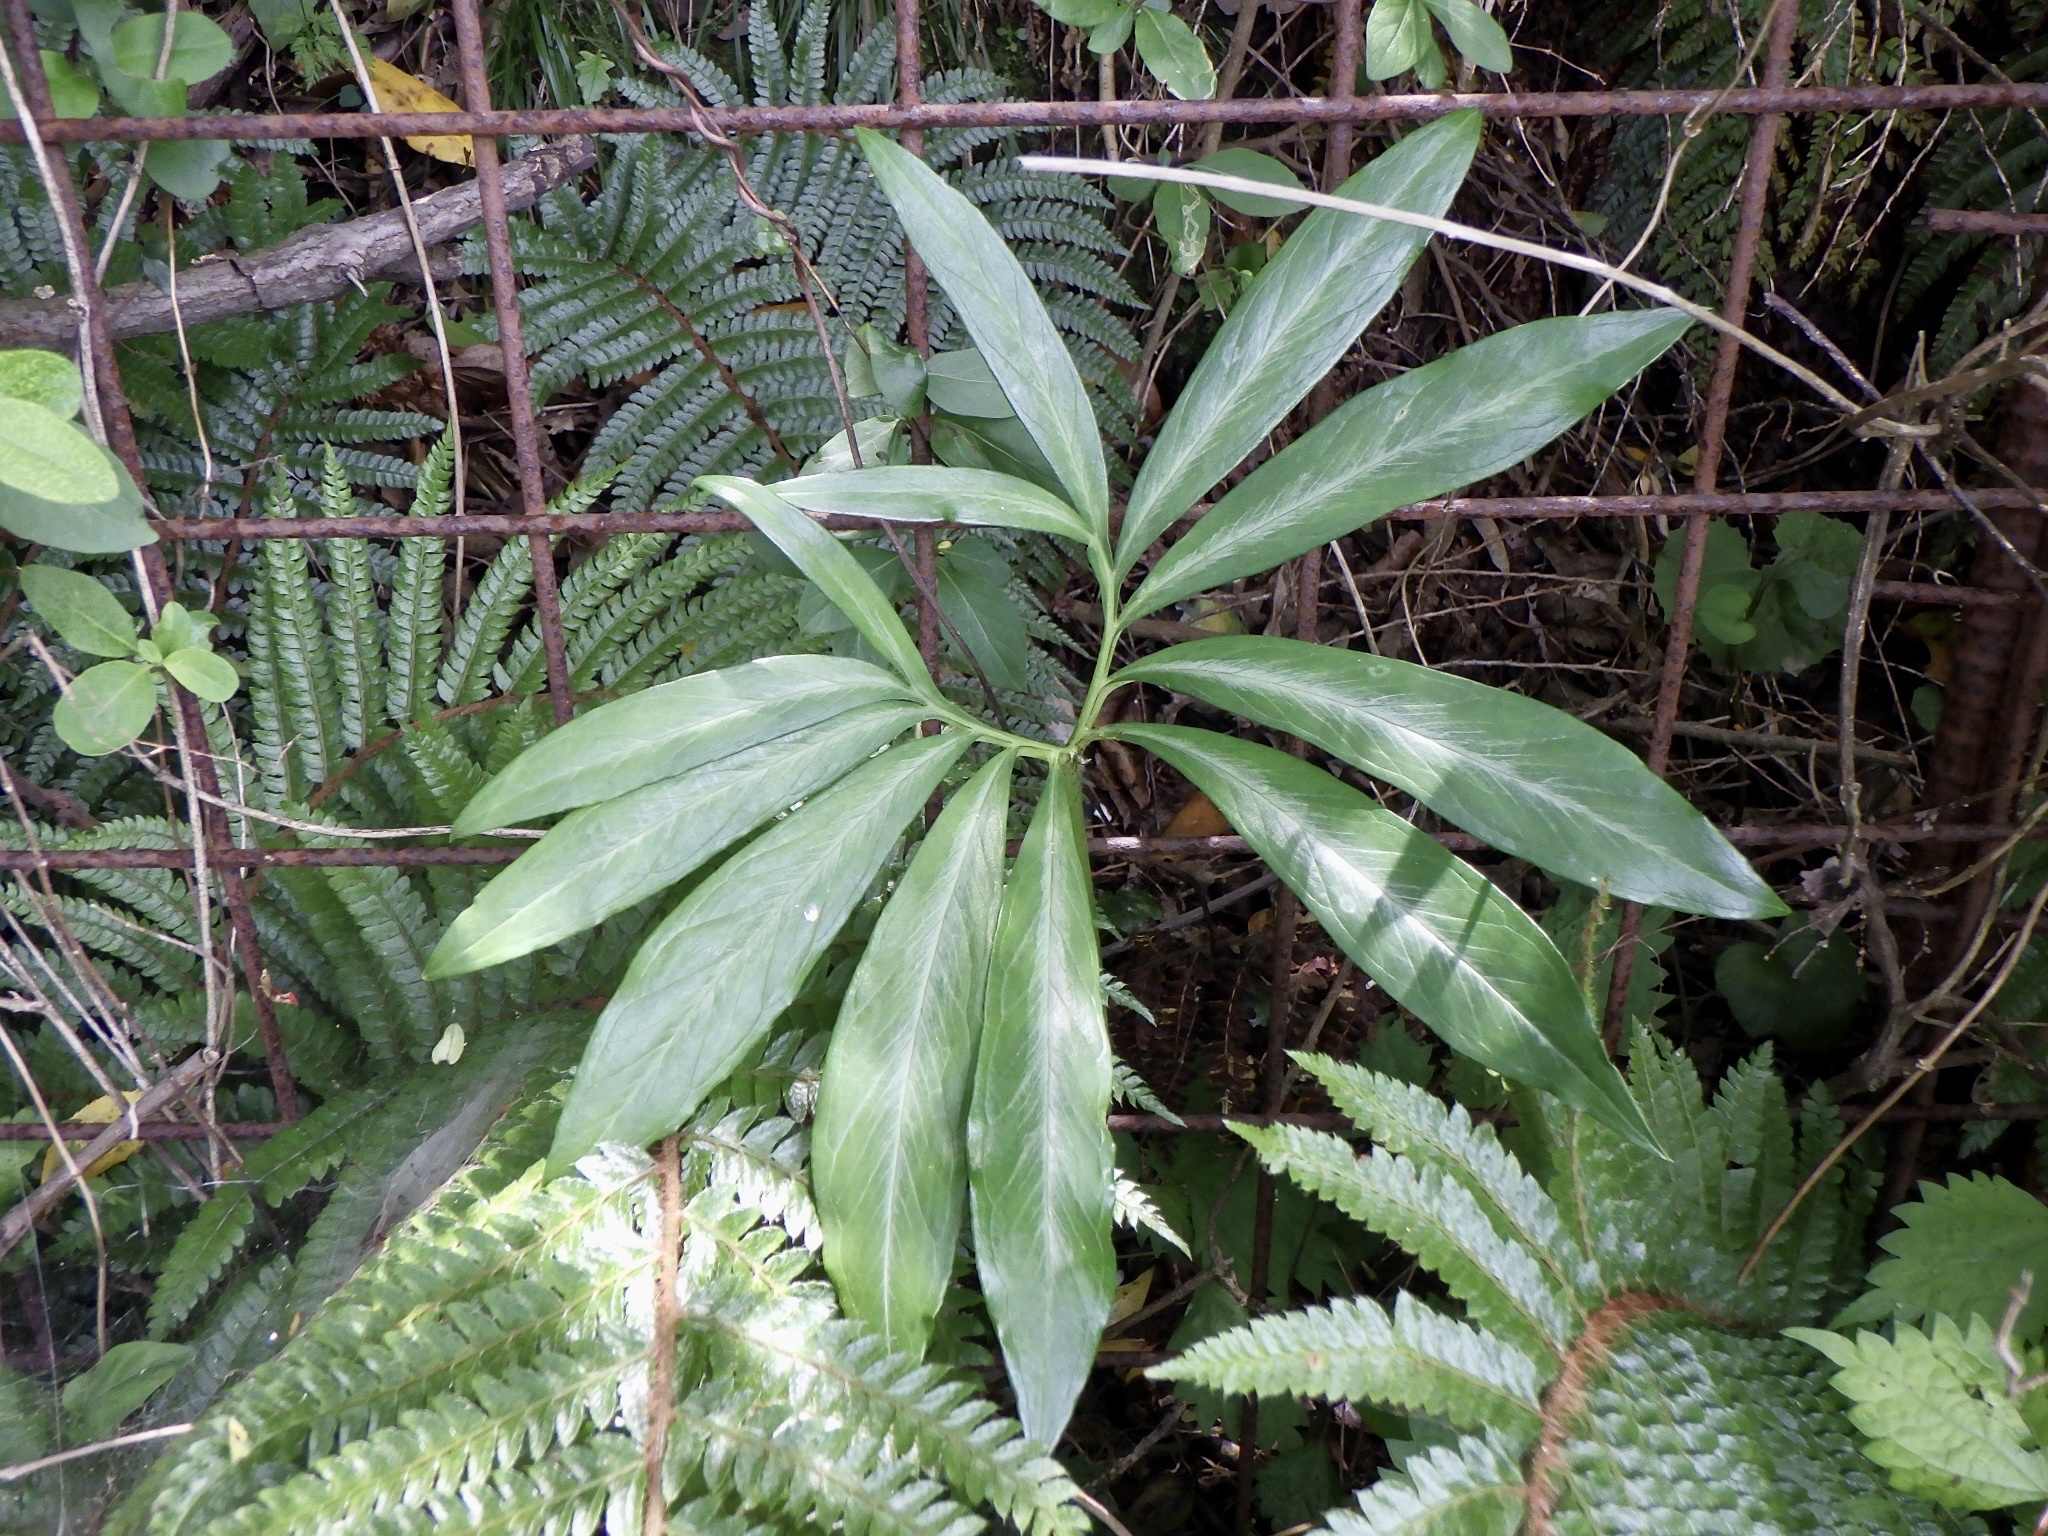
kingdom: Plantae
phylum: Tracheophyta
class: Liliopsida
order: Alismatales
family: Araceae
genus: Arisaema
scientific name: Arisaema thunbergii
